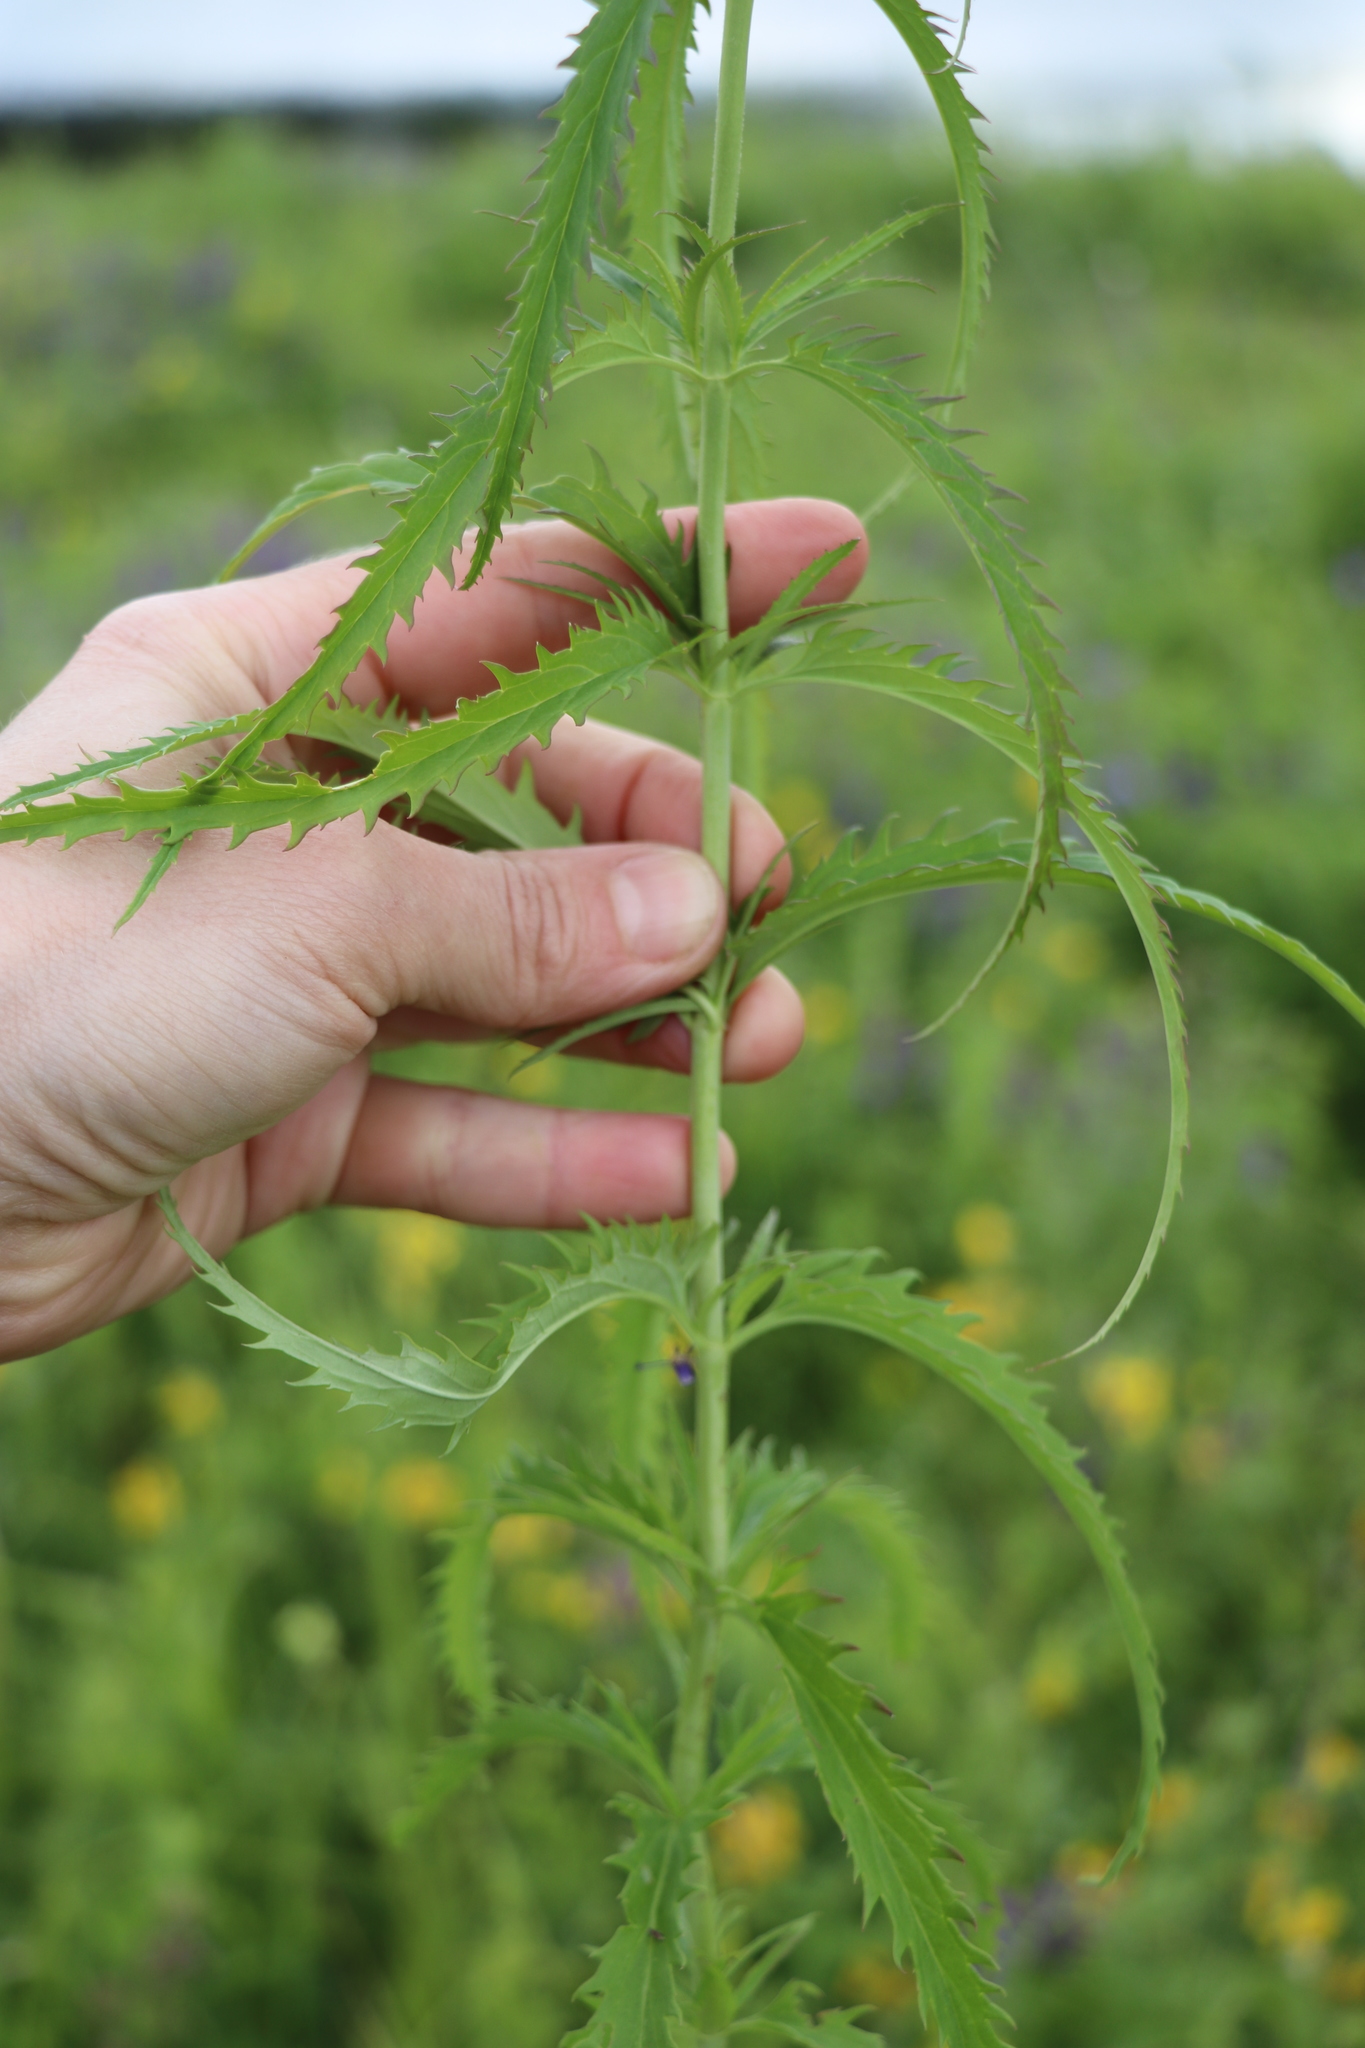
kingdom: Plantae
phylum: Tracheophyta
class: Magnoliopsida
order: Lamiales
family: Plantaginaceae
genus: Veronica
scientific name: Veronica longifolia
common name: Garden speedwell
